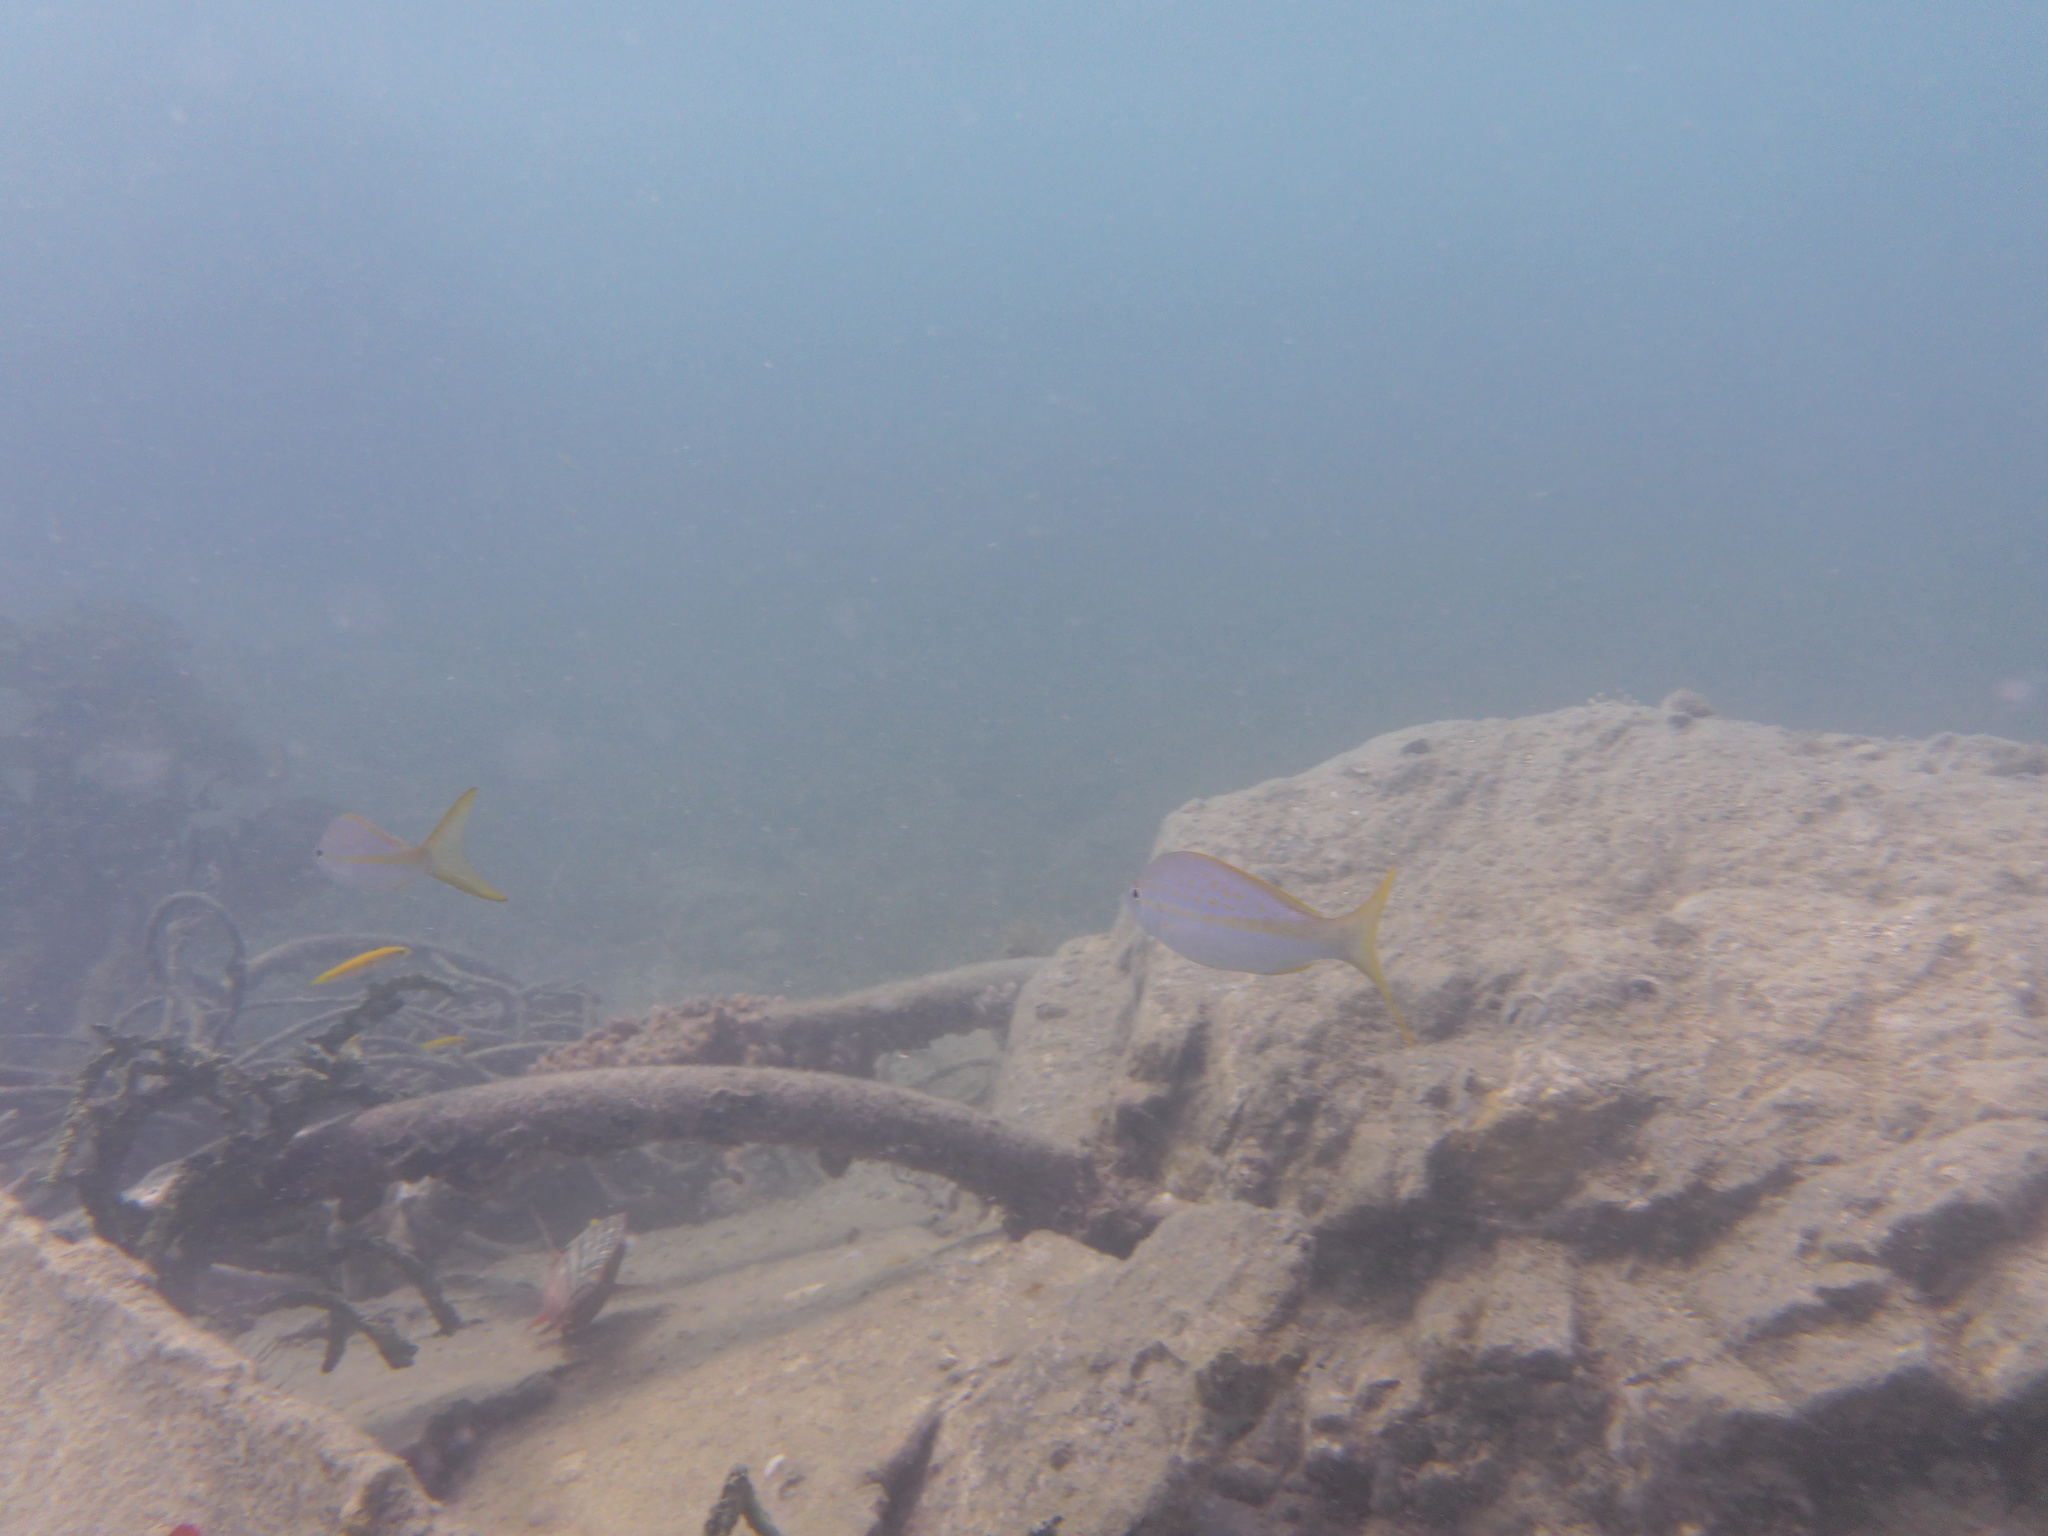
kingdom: Animalia
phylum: Chordata
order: Perciformes
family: Lutjanidae
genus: Ocyurus
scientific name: Ocyurus chrysurus
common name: Yellowtail snapper
